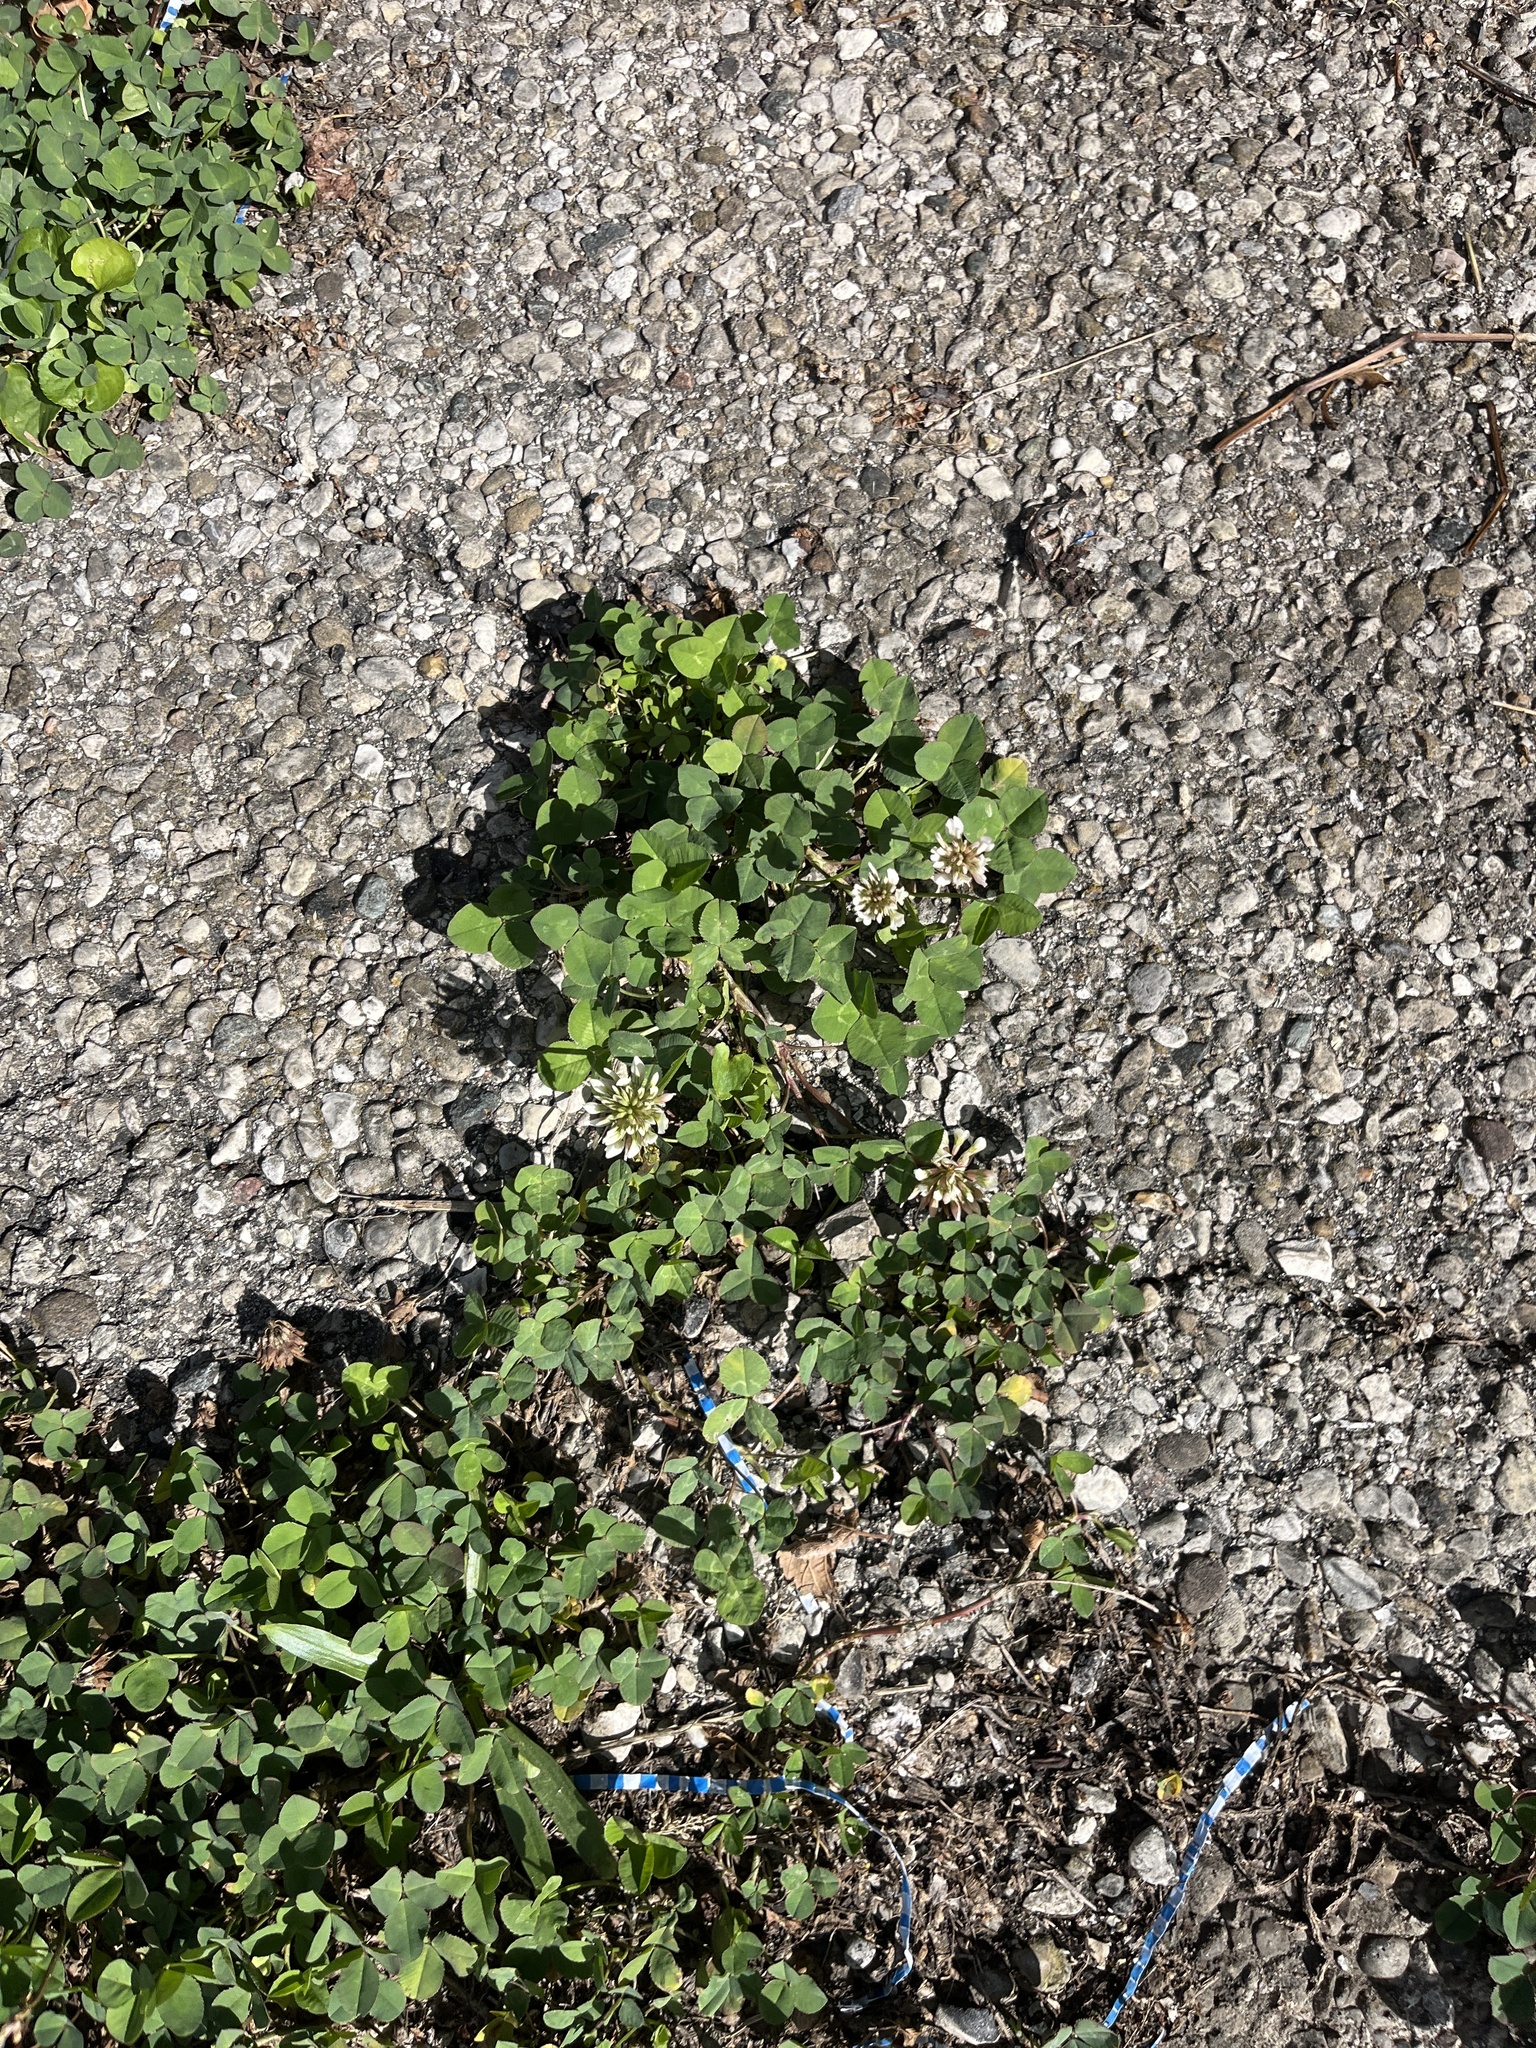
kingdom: Plantae
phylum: Tracheophyta
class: Magnoliopsida
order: Fabales
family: Fabaceae
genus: Trifolium
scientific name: Trifolium repens
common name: White clover
